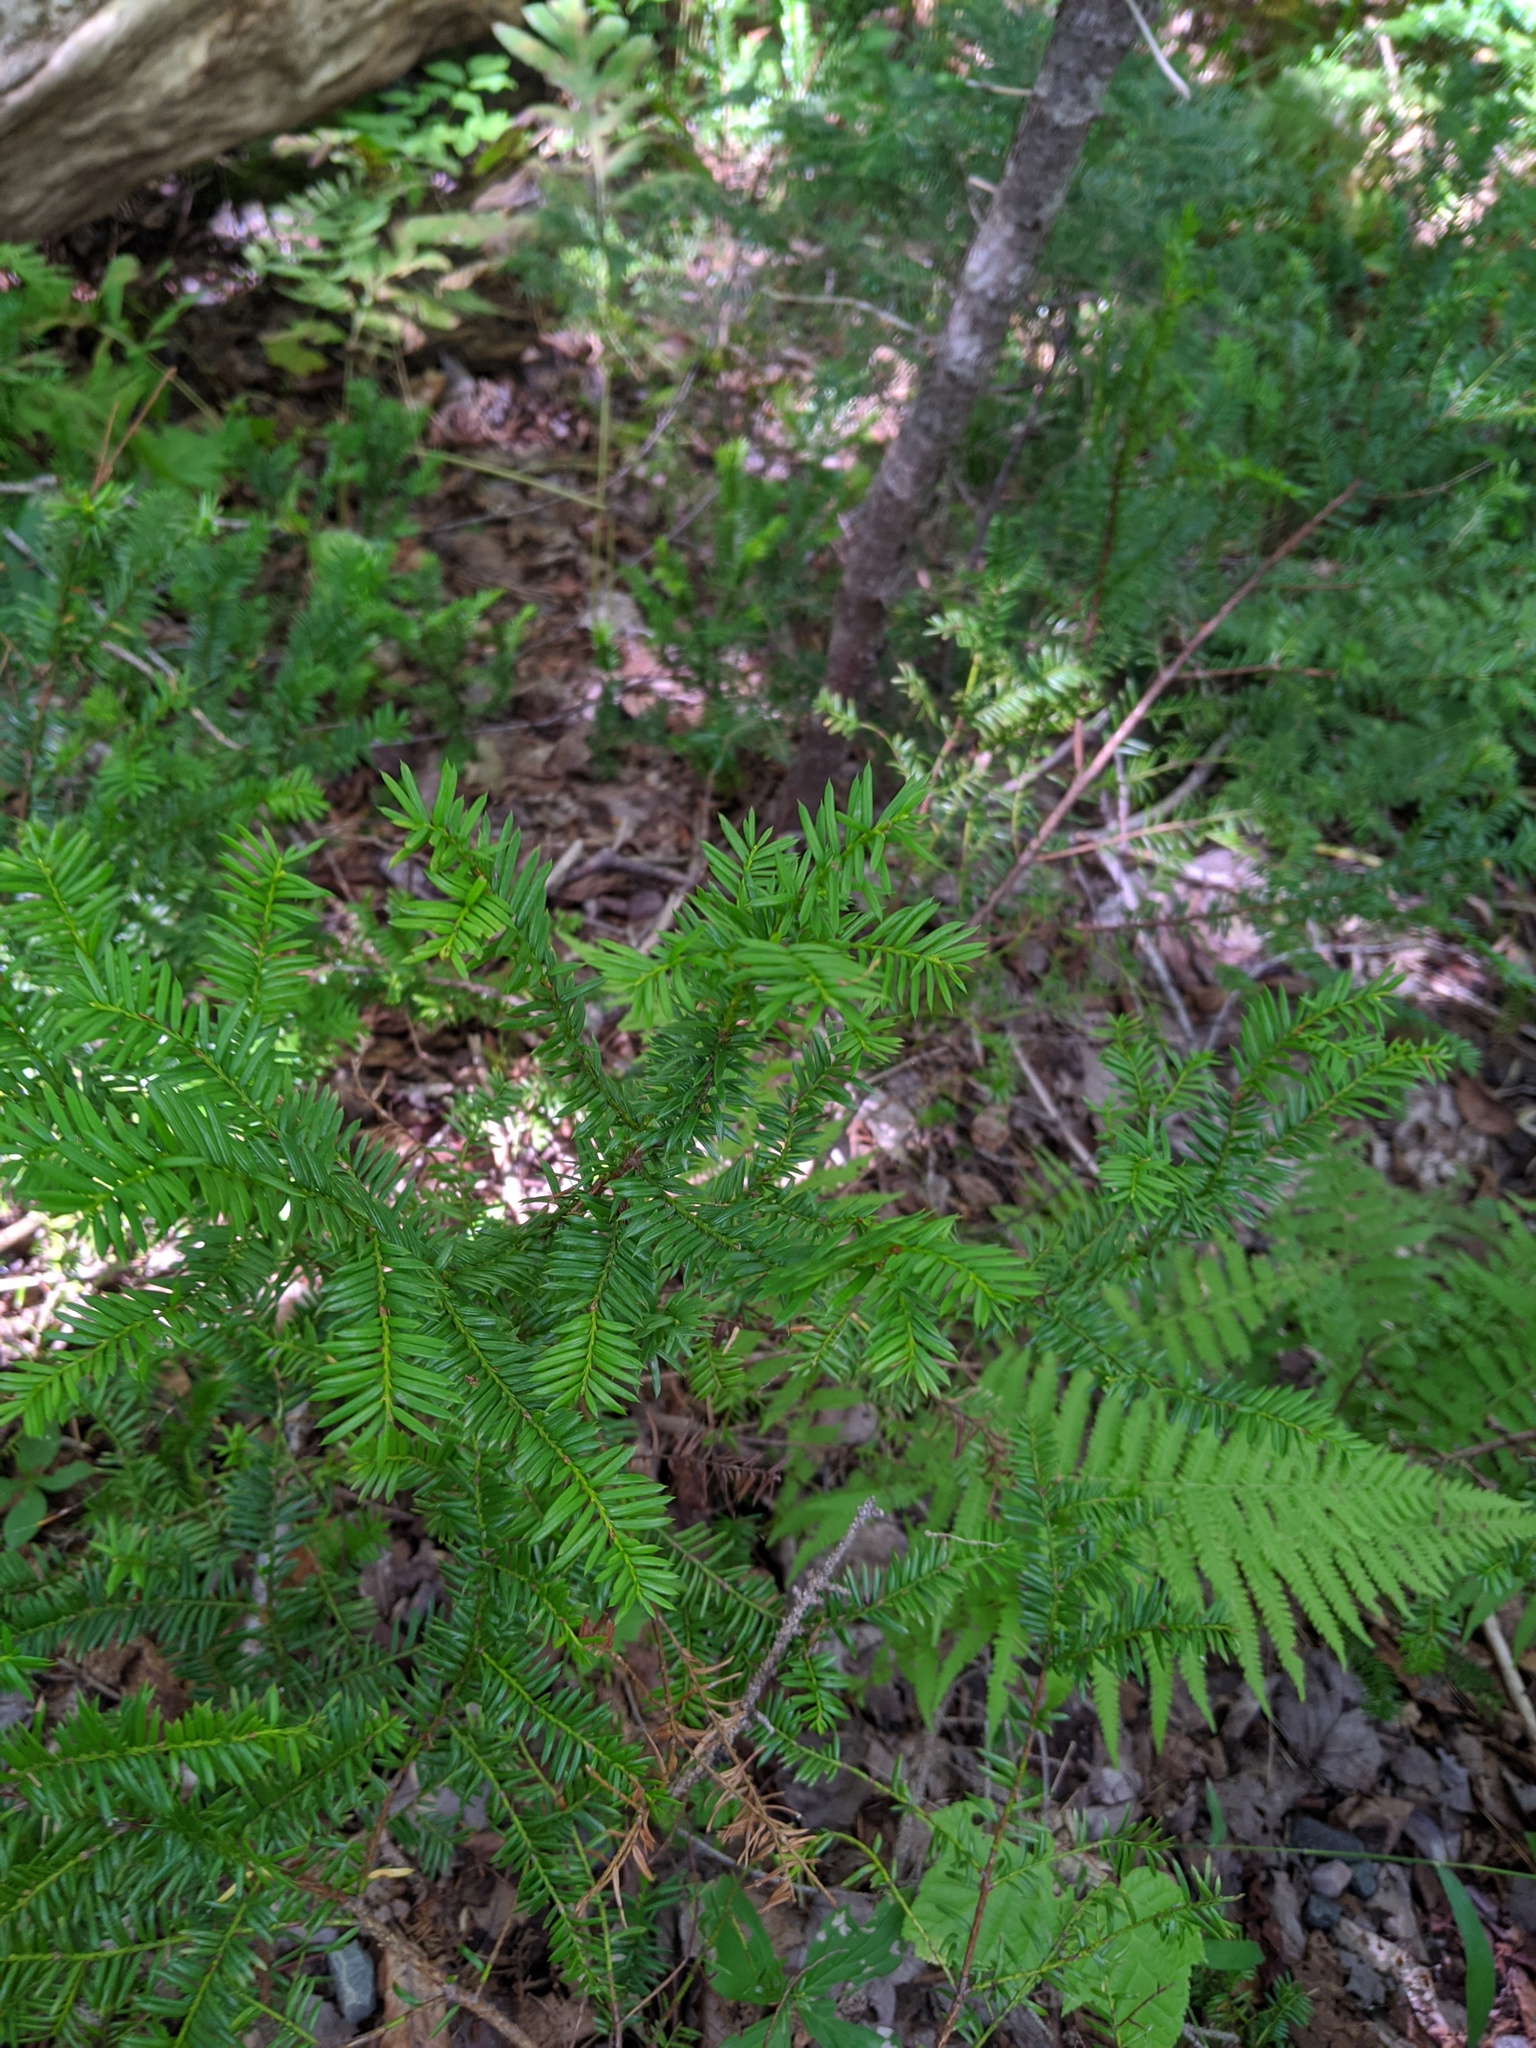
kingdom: Plantae
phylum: Tracheophyta
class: Pinopsida
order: Pinales
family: Taxaceae
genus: Taxus
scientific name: Taxus canadensis
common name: American yew
